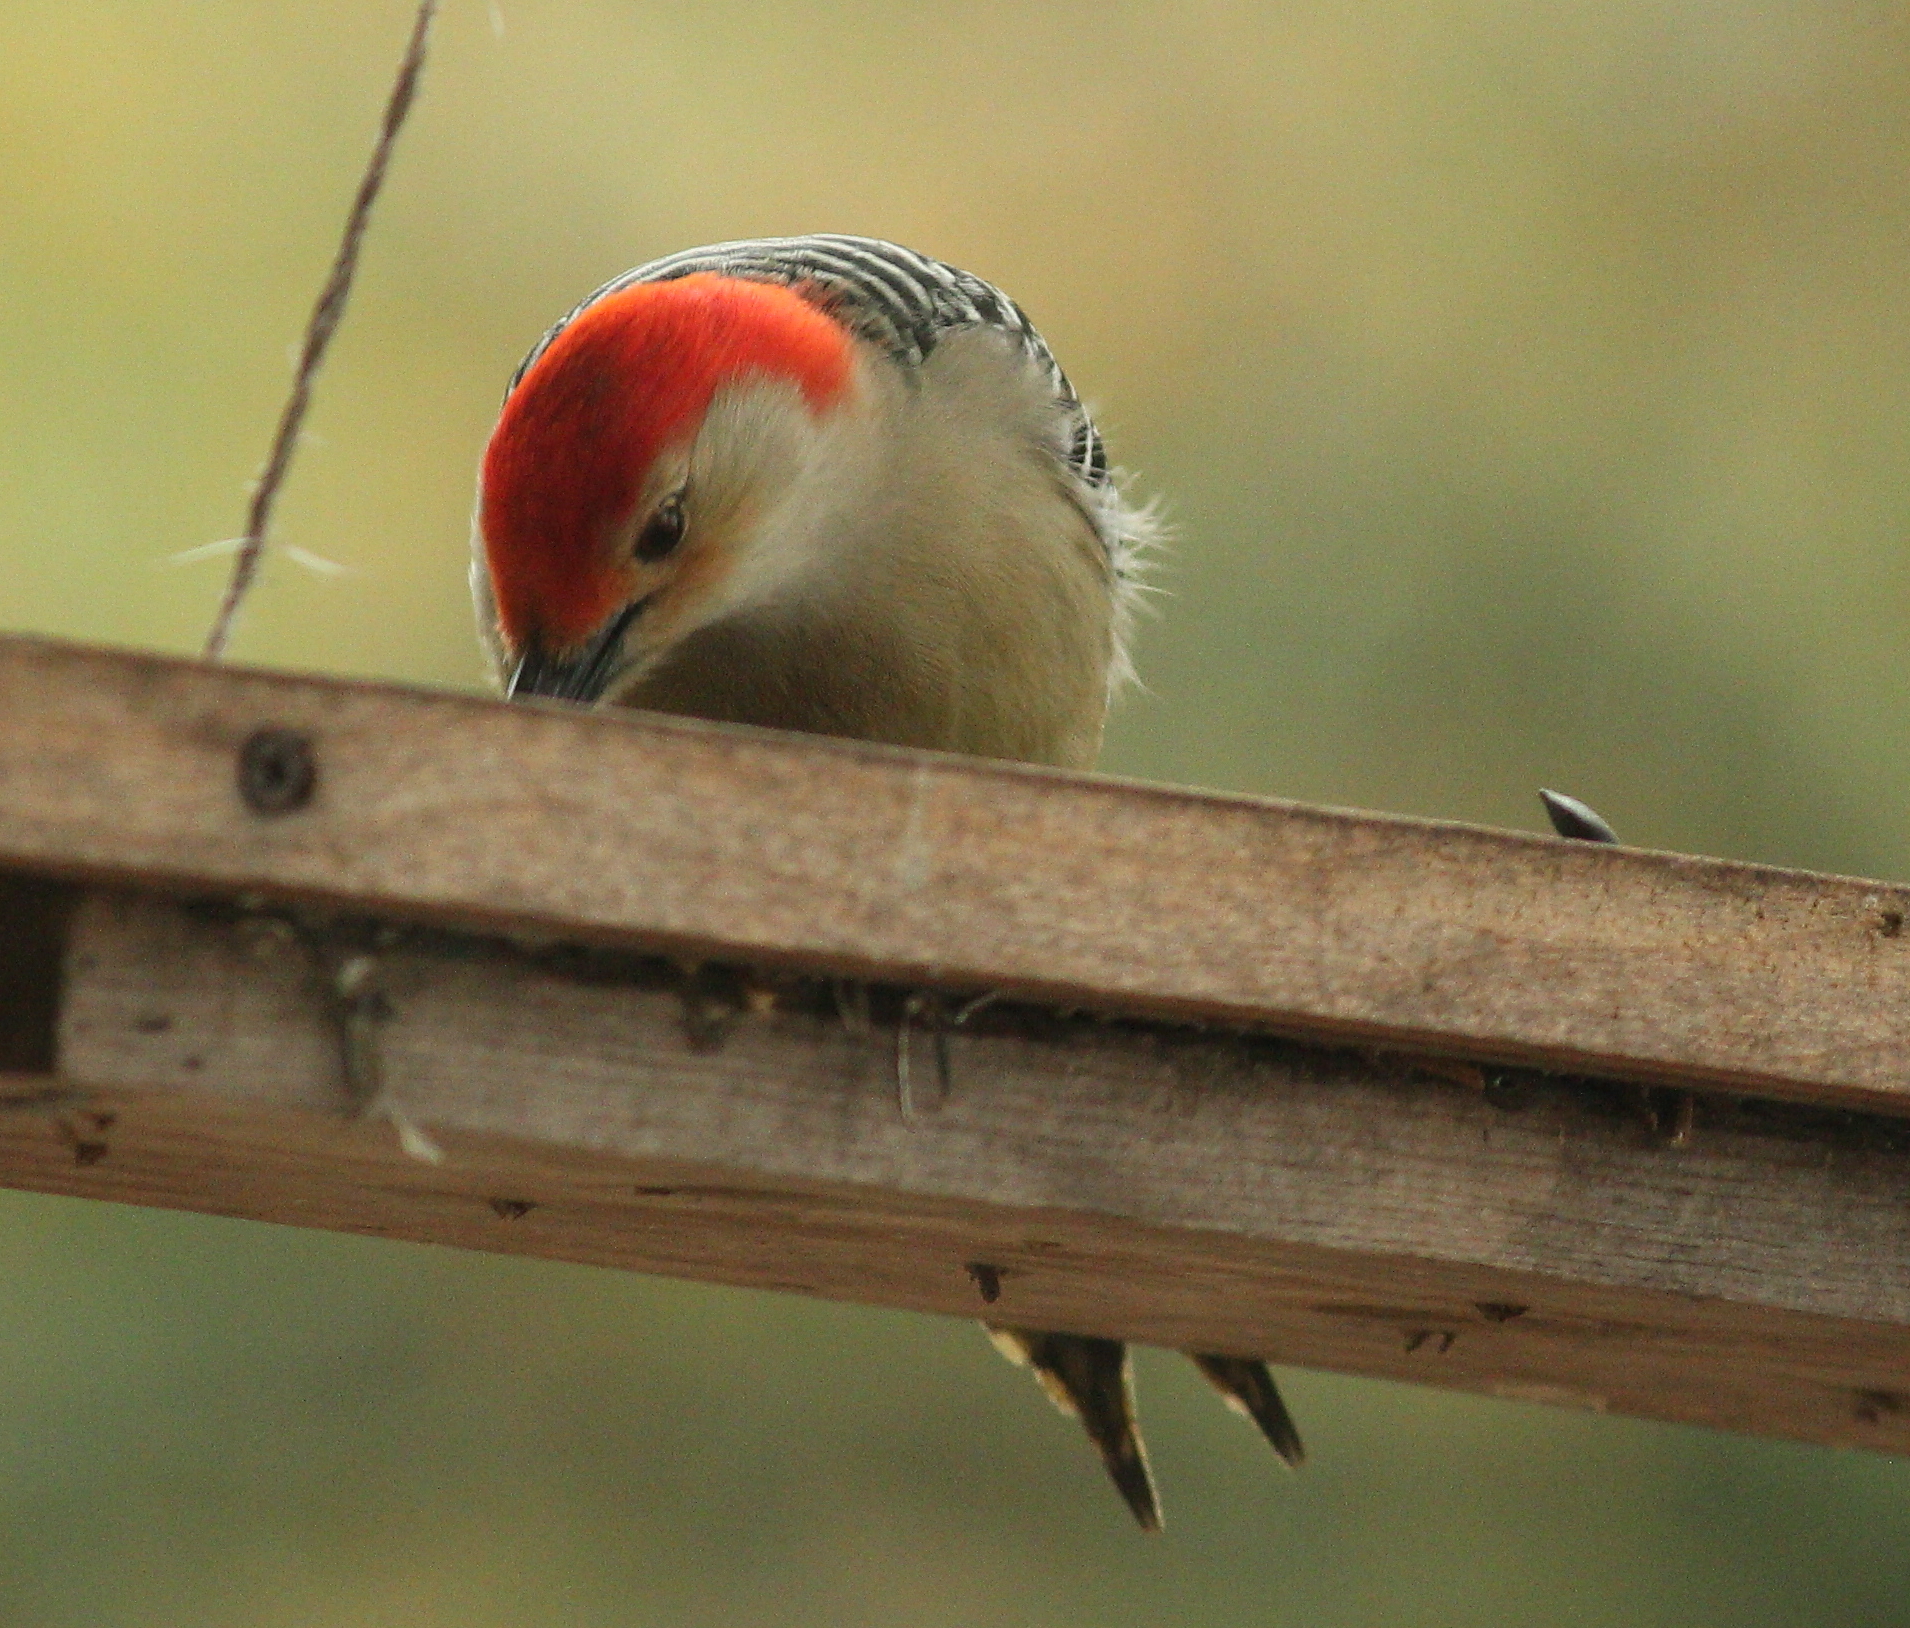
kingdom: Animalia
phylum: Chordata
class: Aves
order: Piciformes
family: Picidae
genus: Melanerpes
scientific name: Melanerpes carolinus
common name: Red-bellied woodpecker
